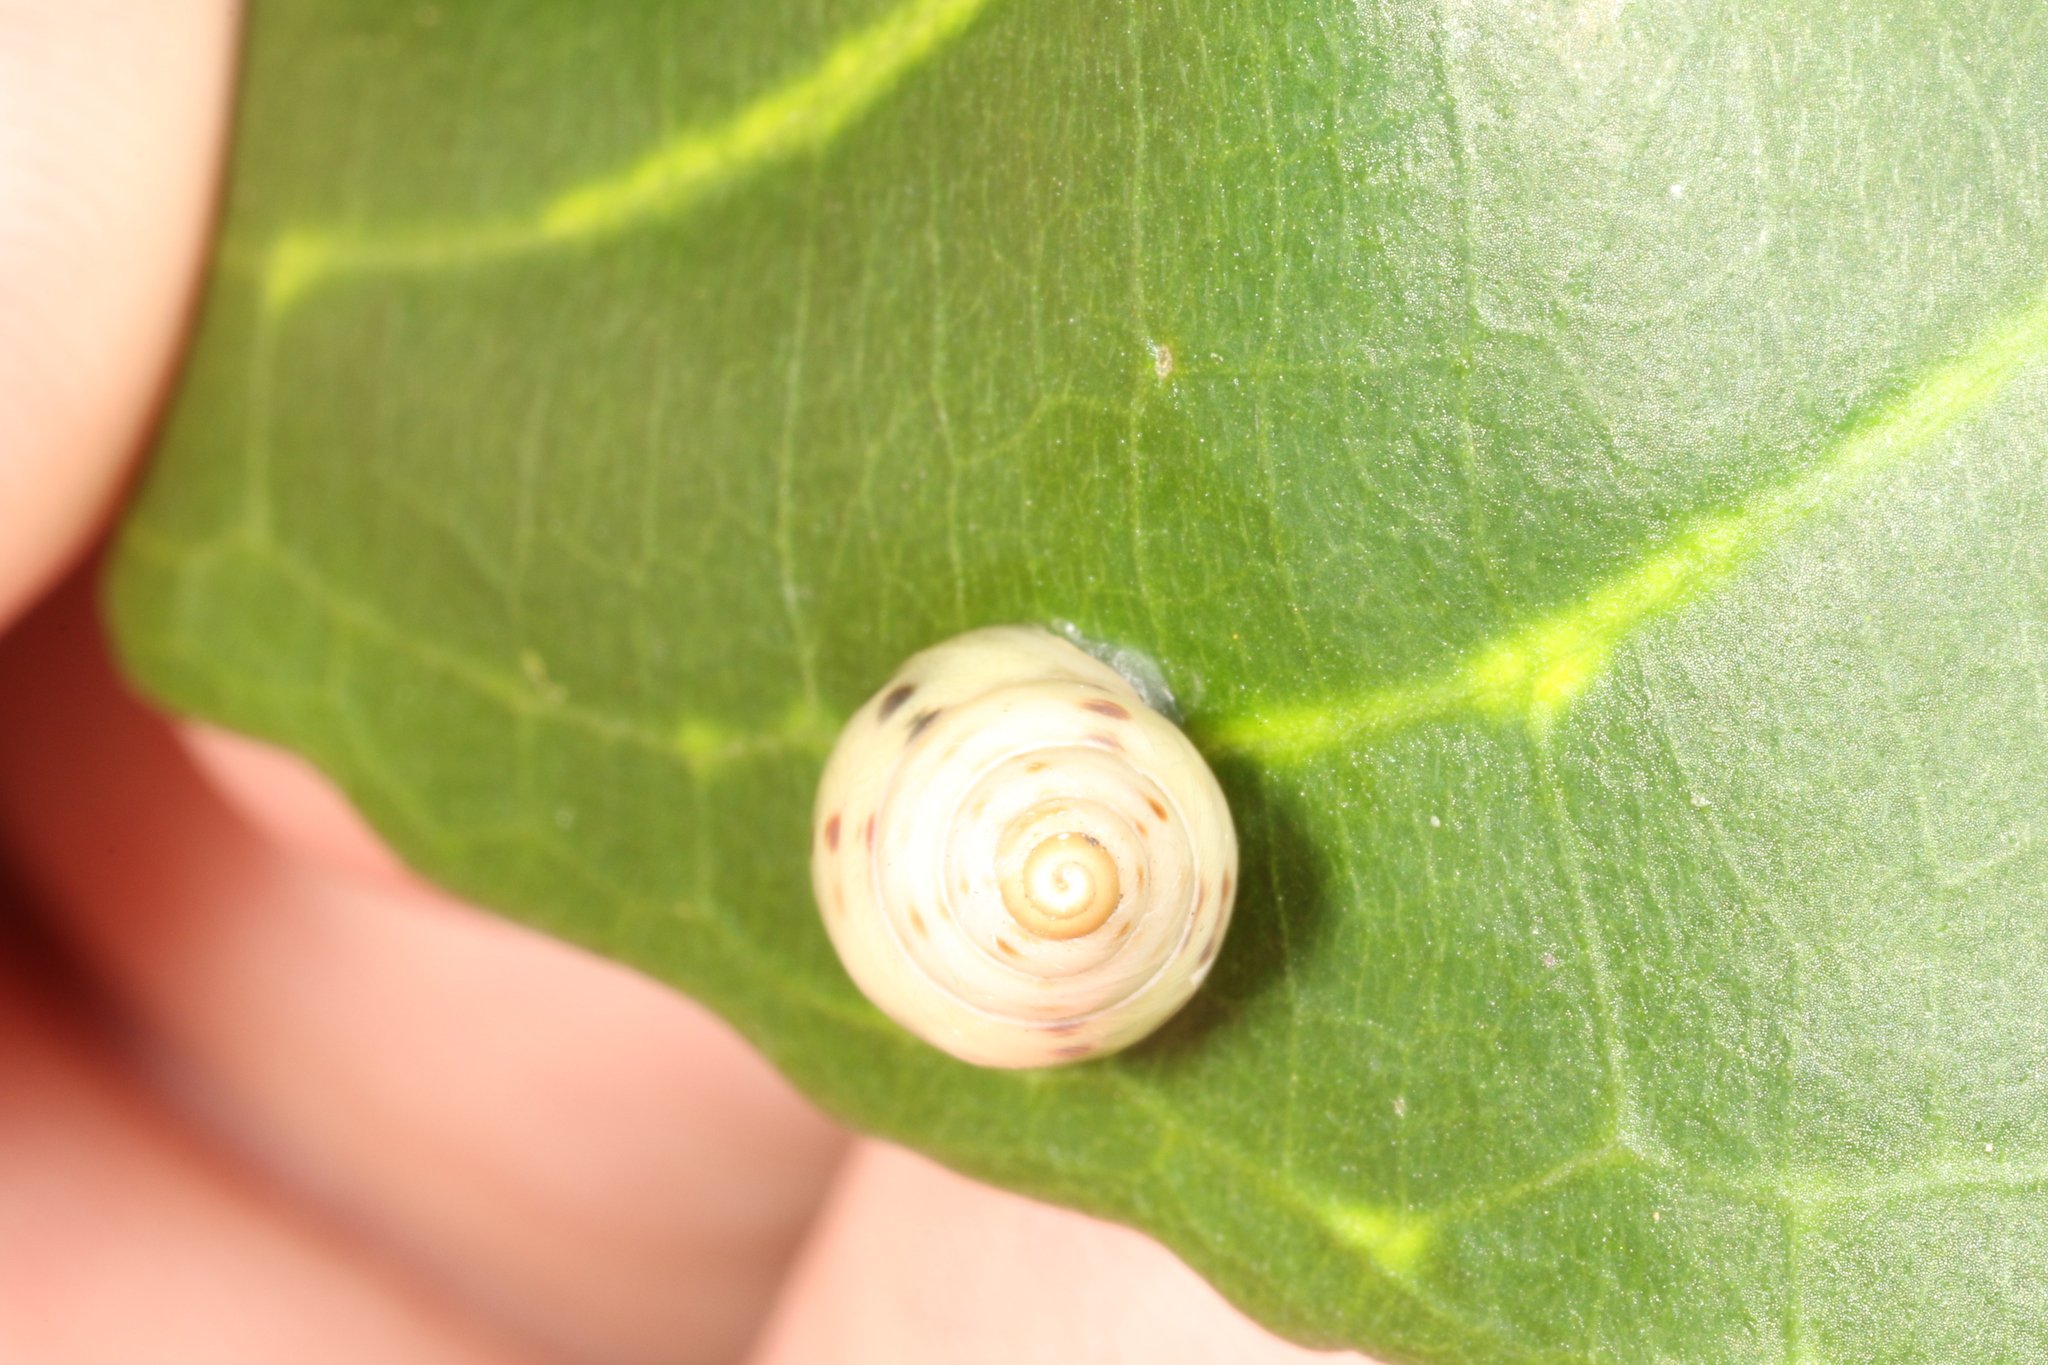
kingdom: Animalia
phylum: Mollusca
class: Gastropoda
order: Stylommatophora
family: Bulimulidae
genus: Drymaeus
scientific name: Drymaeus
